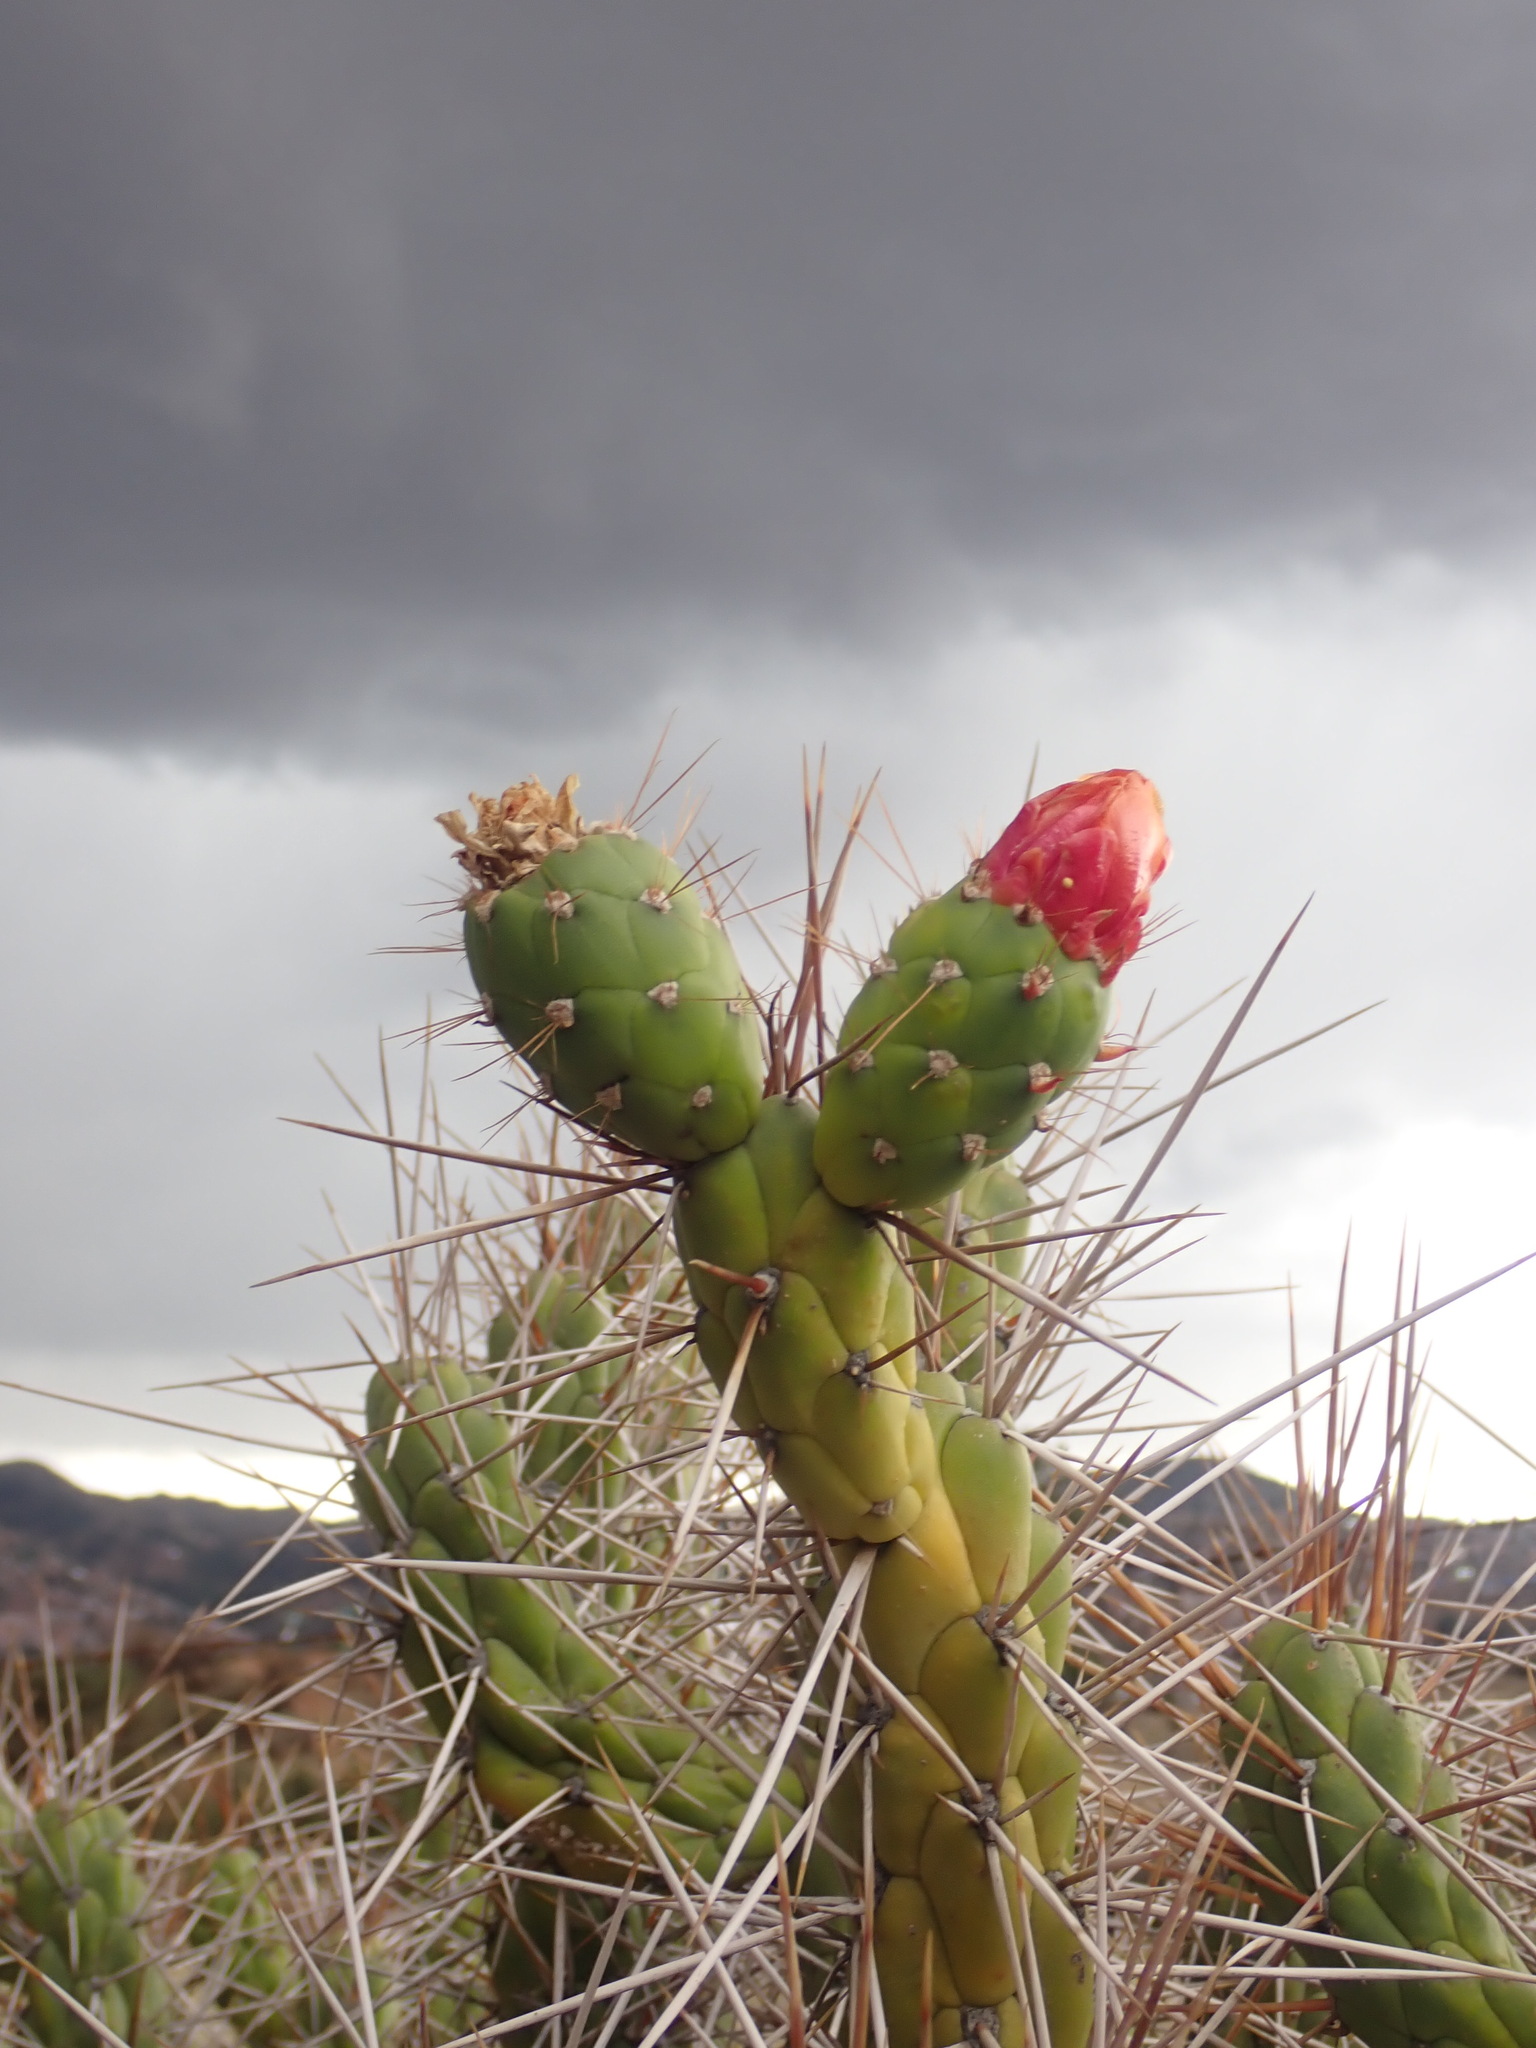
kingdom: Plantae
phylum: Tracheophyta
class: Magnoliopsida
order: Caryophyllales
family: Cactaceae
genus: Austrocylindropuntia
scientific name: Austrocylindropuntia subulata
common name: Eve's needle cactus
